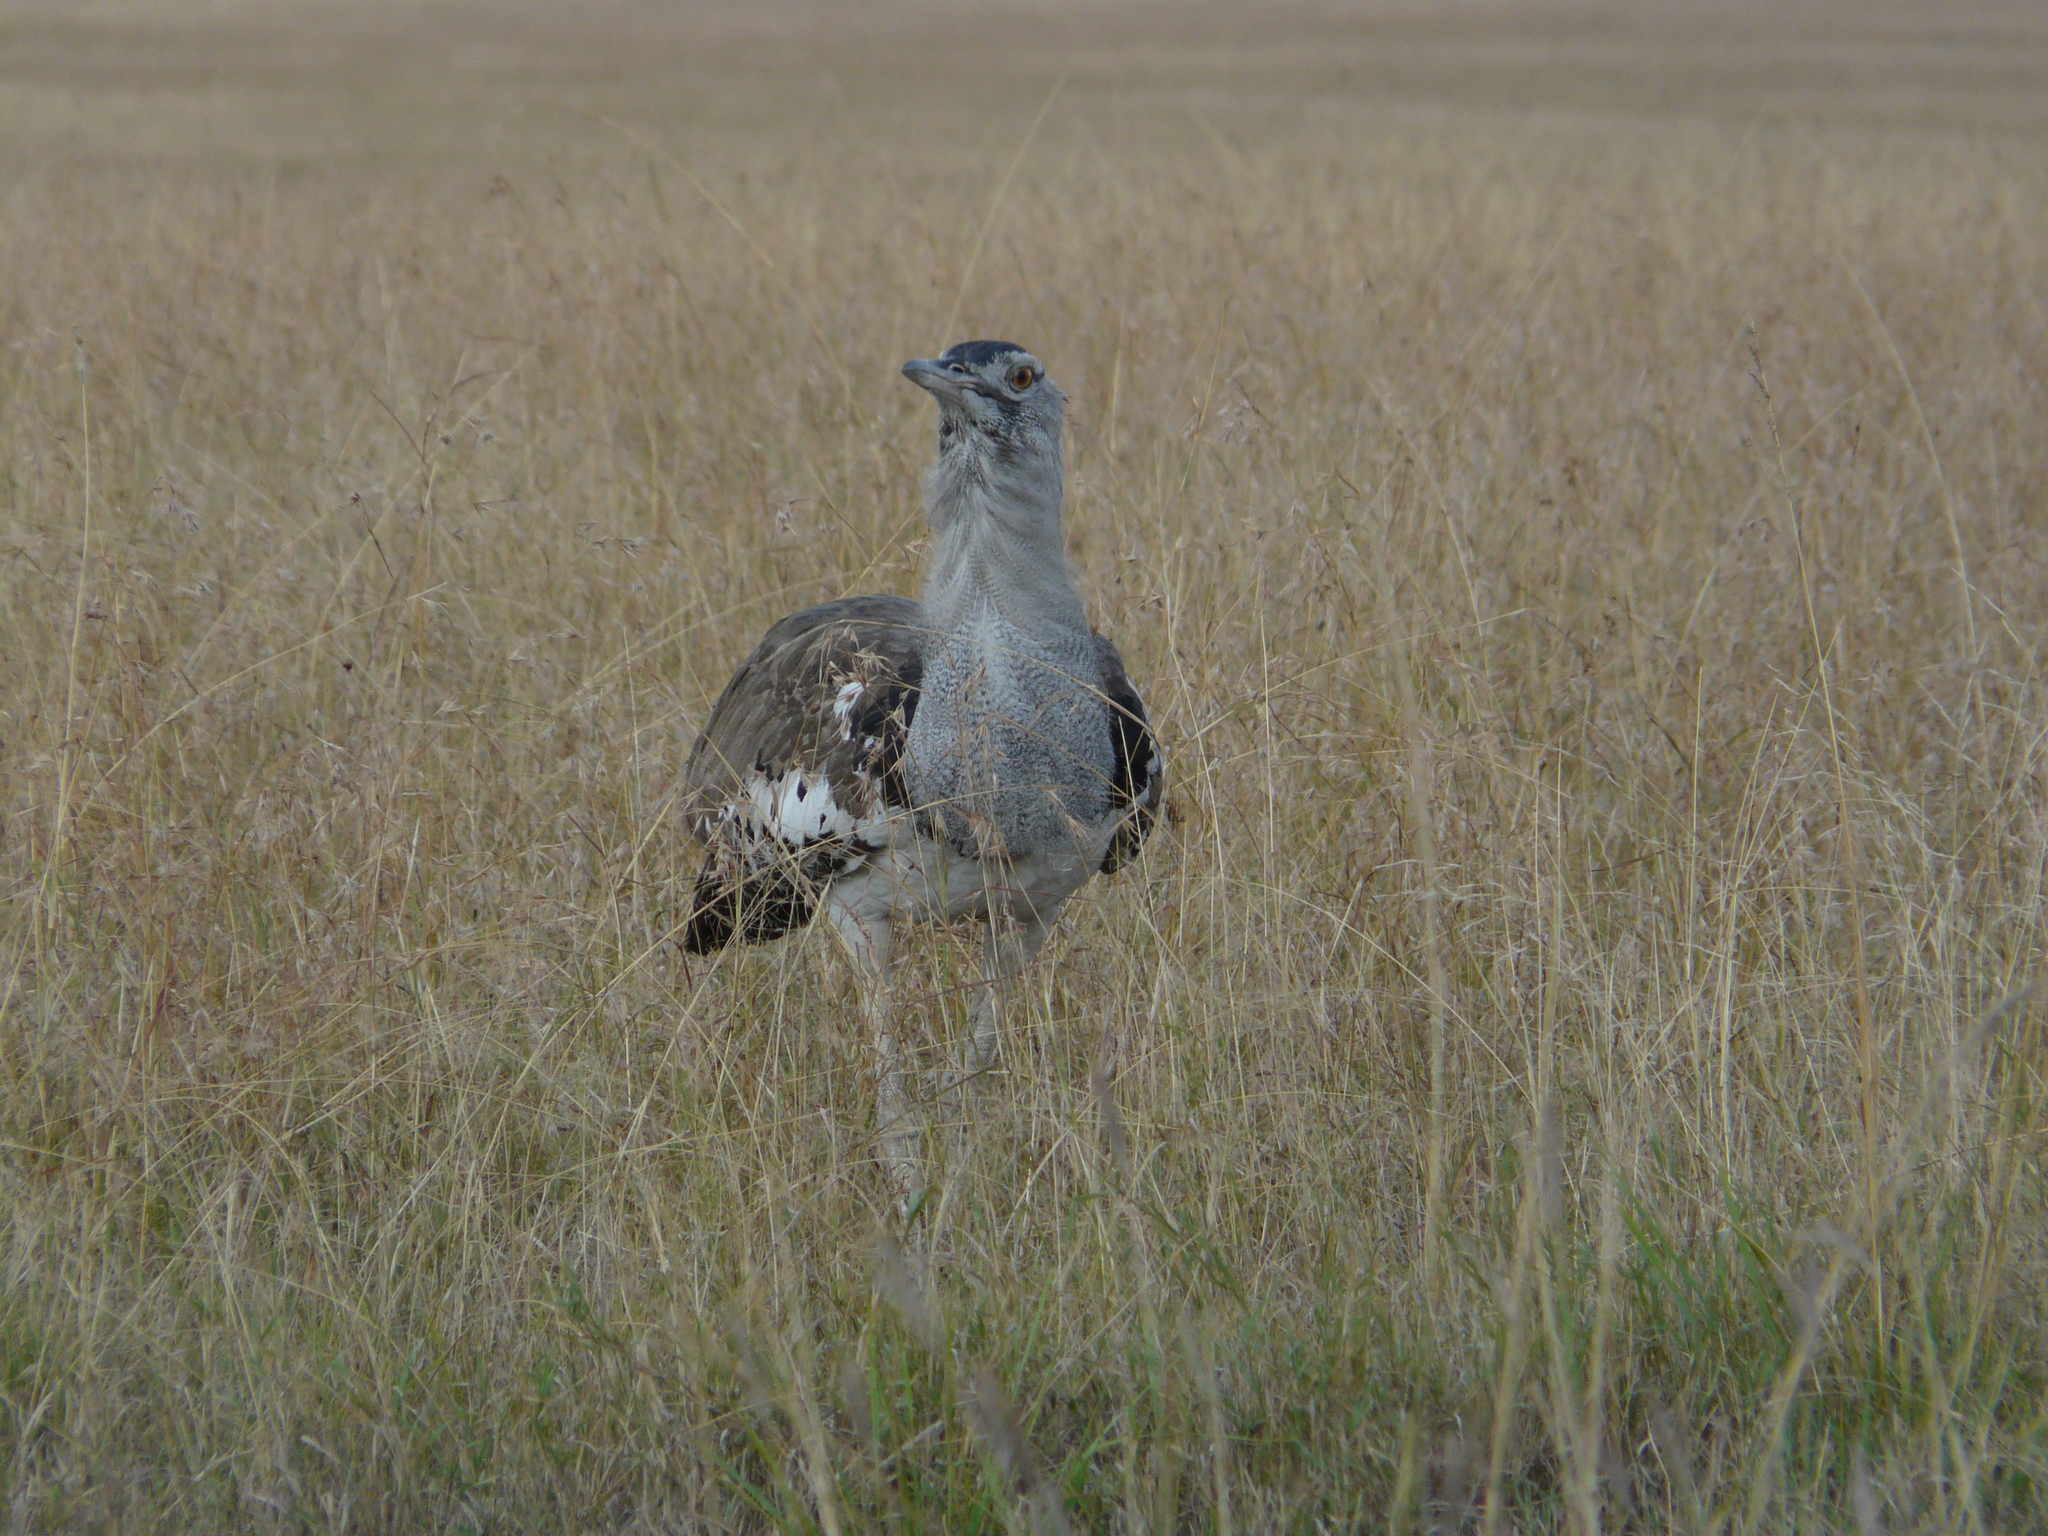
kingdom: Animalia
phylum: Chordata
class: Aves
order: Otidiformes
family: Otididae
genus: Ardeotis
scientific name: Ardeotis kori
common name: Kori bustard
